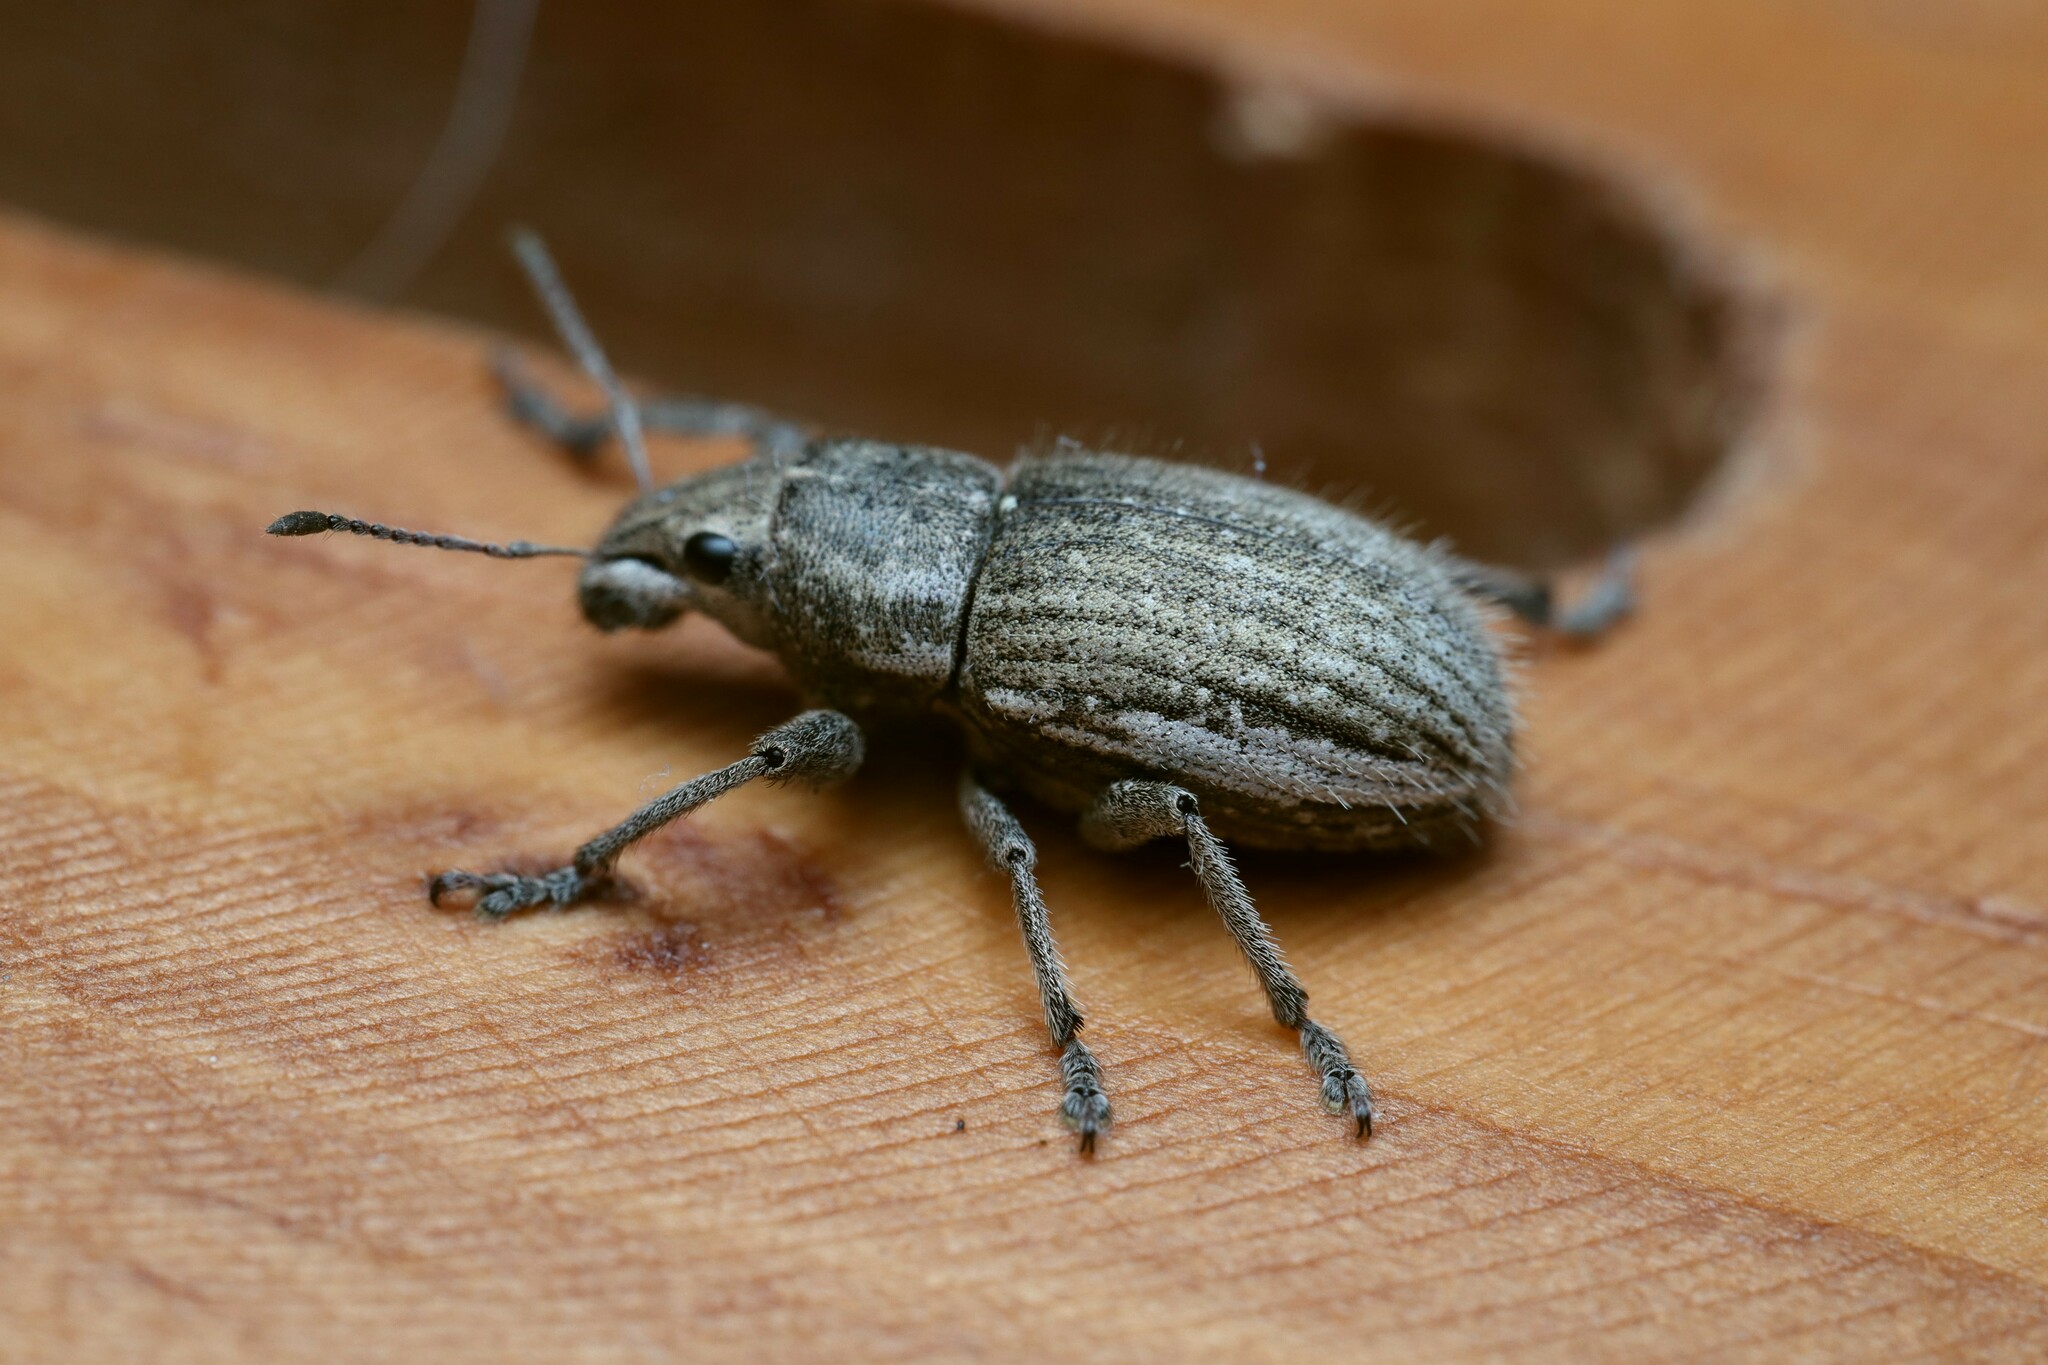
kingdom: Animalia
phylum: Arthropoda
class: Insecta
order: Coleoptera
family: Curculionidae
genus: Naupactus
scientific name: Naupactus leucoloma
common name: Whitefringed beetle
